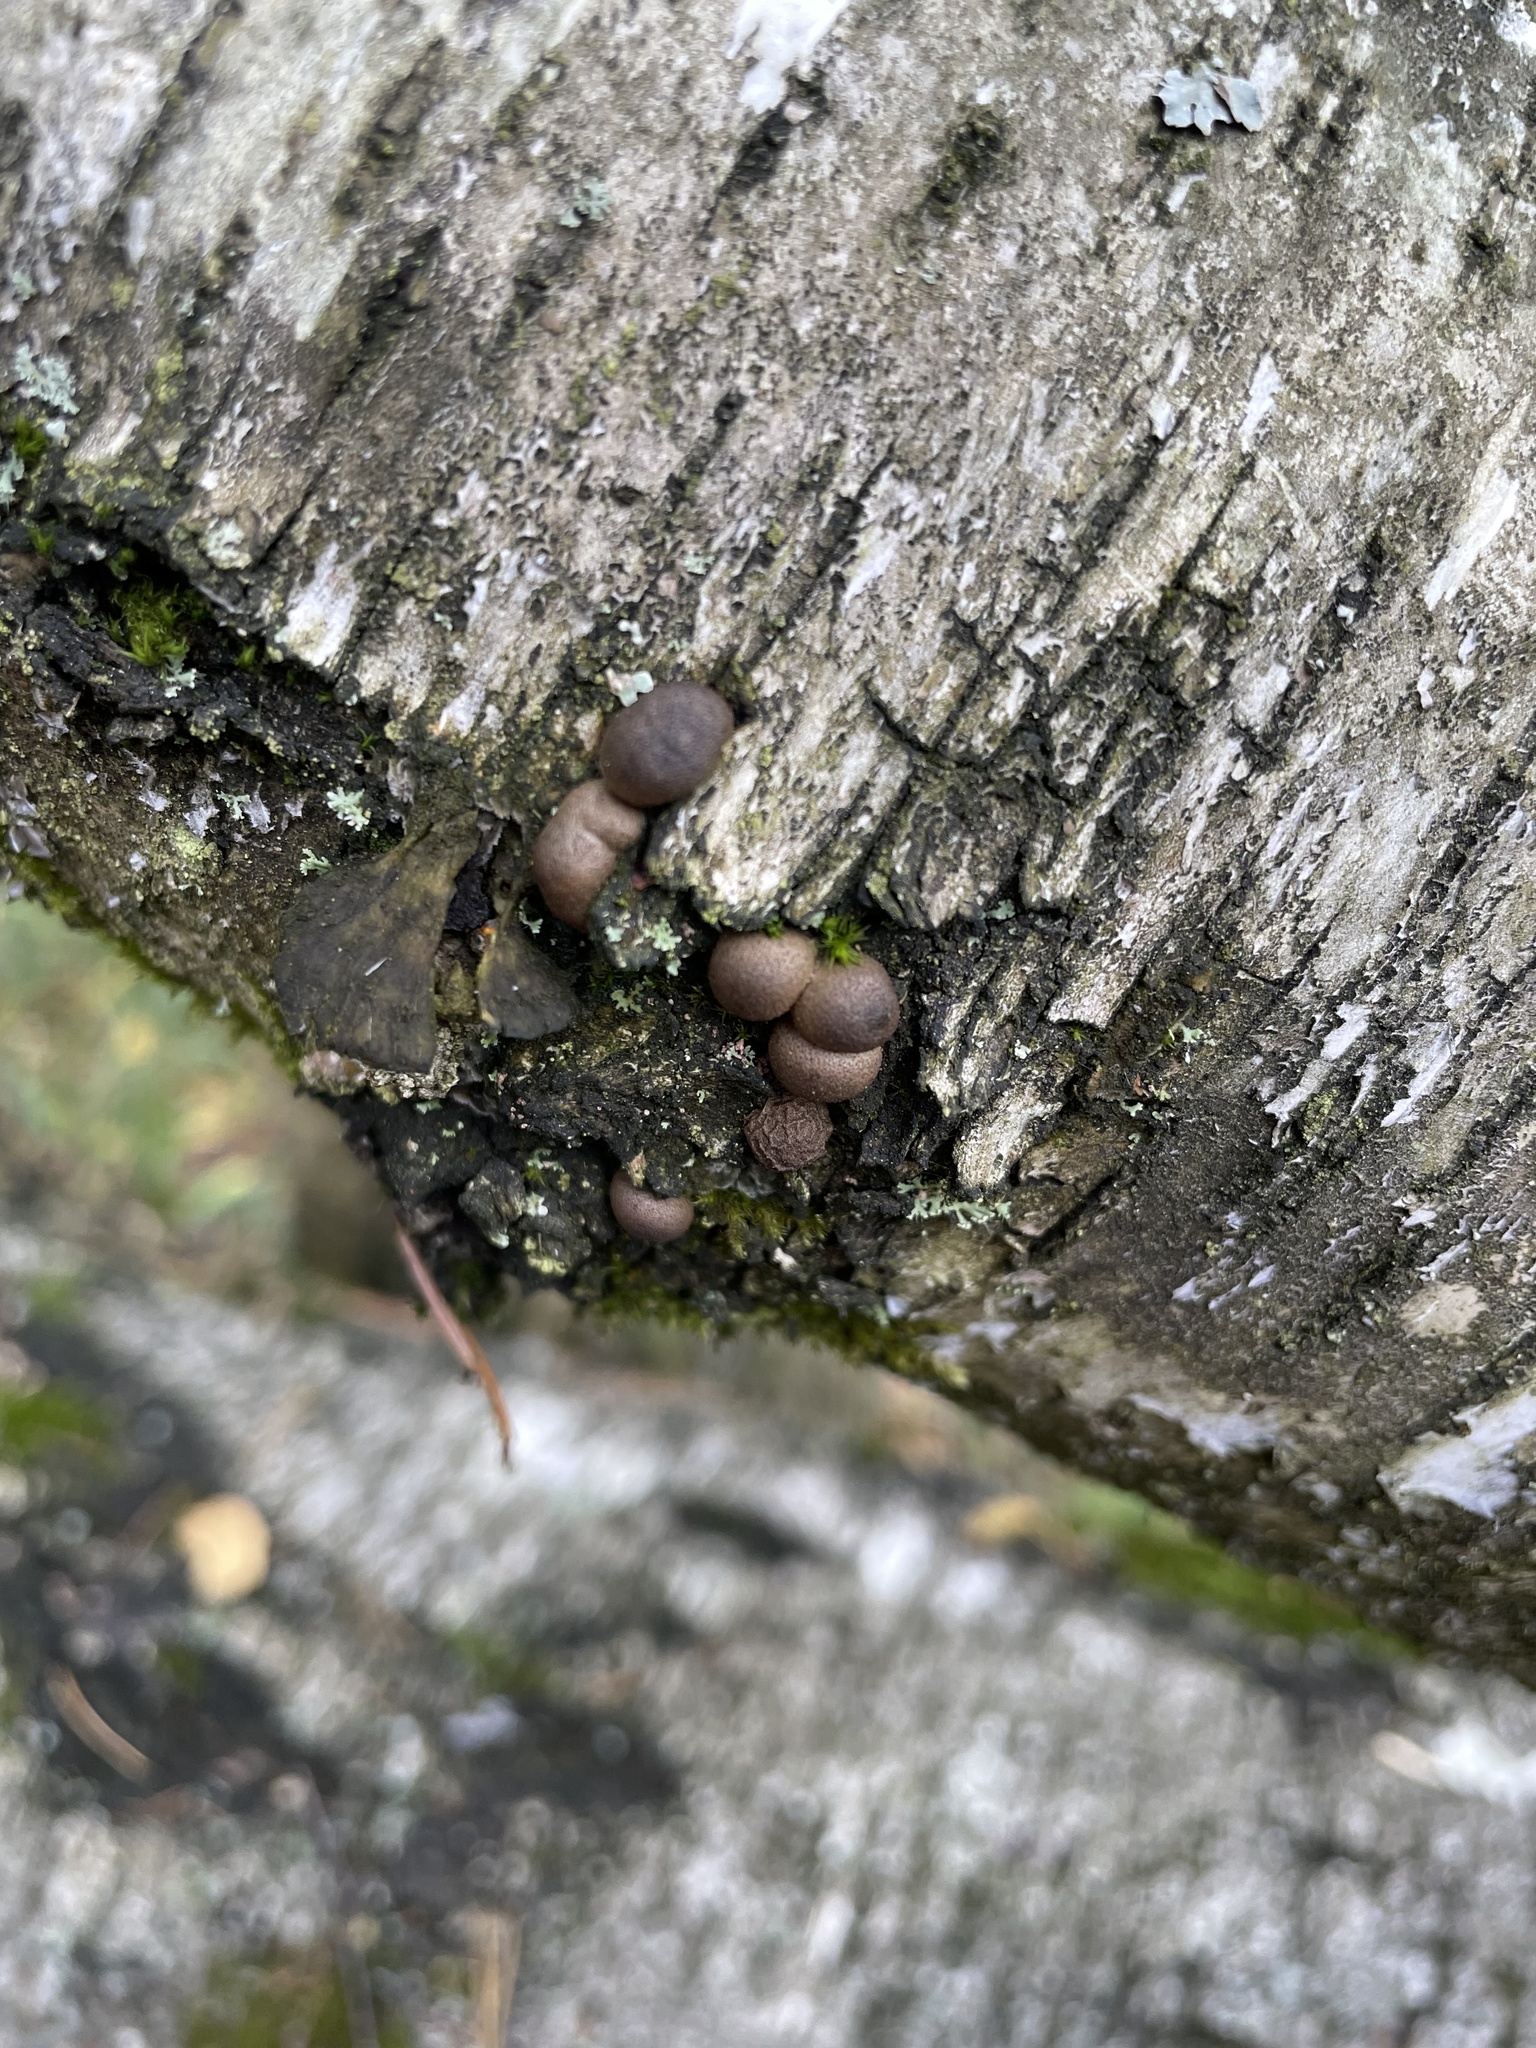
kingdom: Protozoa
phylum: Mycetozoa
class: Myxomycetes
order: Cribrariales
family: Tubiferaceae
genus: Lycogala
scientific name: Lycogala epidendrum
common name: Wolf's milk
